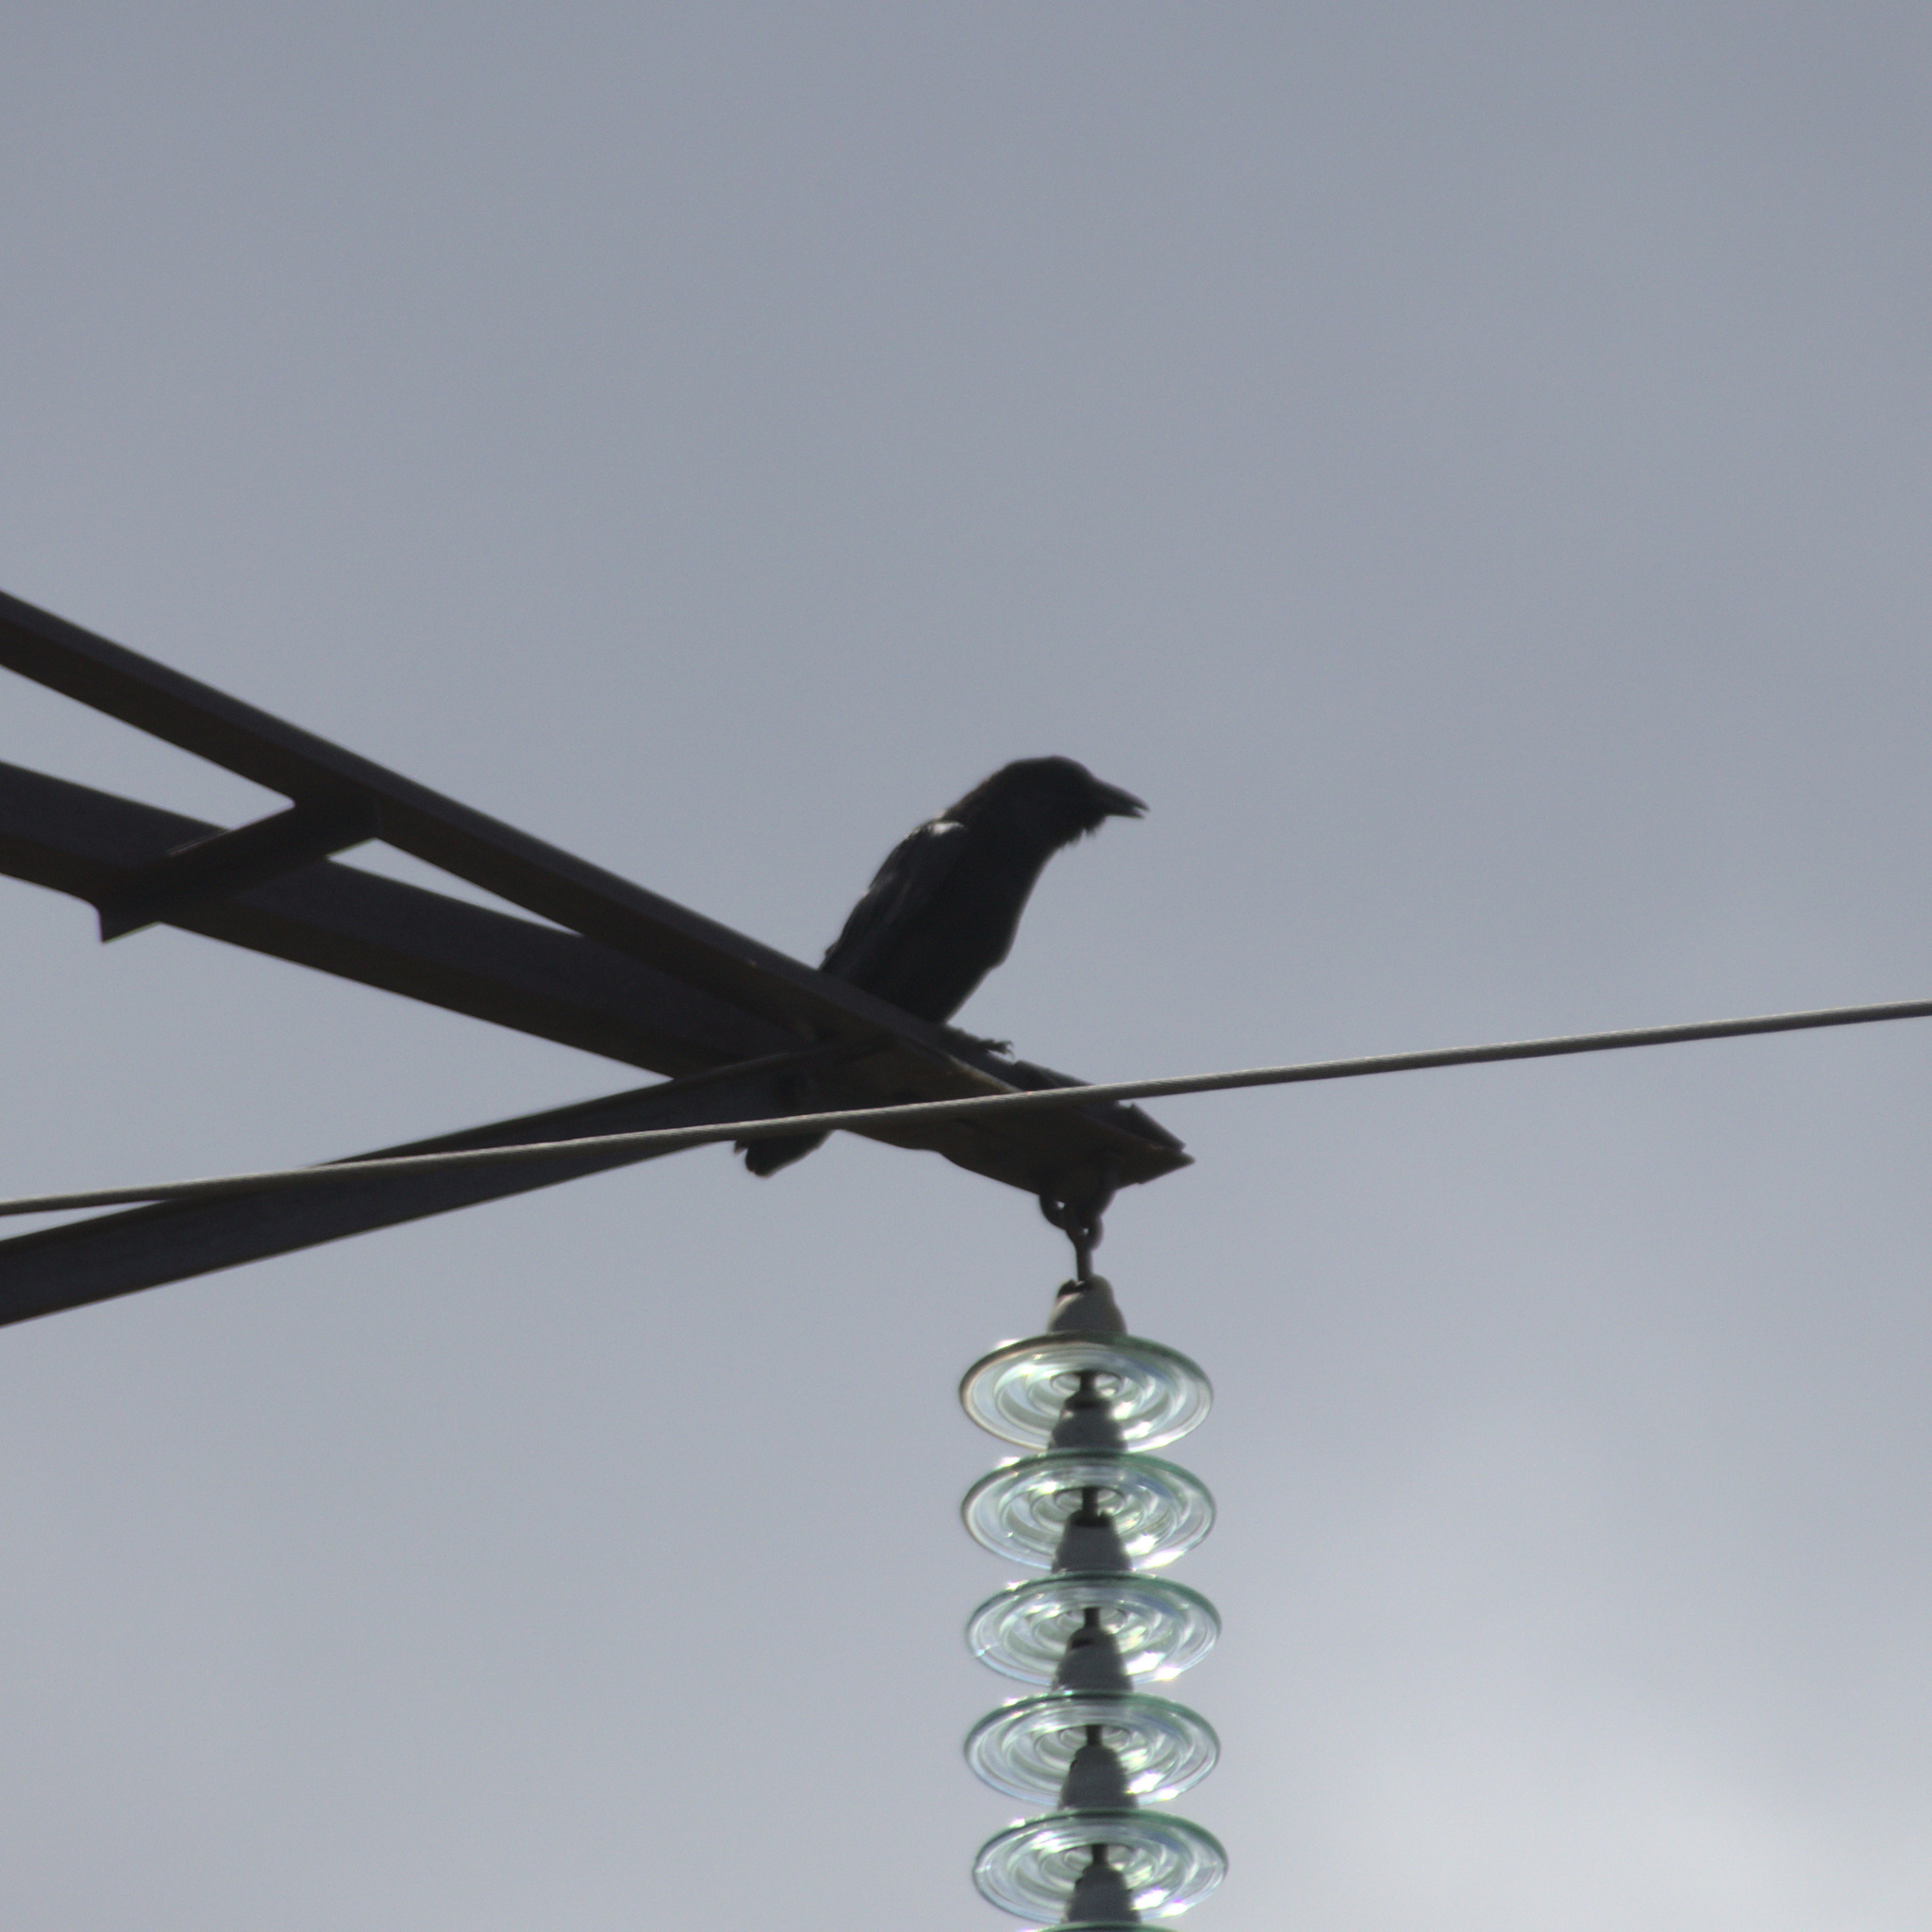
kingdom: Animalia
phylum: Chordata
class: Aves
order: Passeriformes
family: Corvidae
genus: Corvus
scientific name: Corvus corax
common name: Common raven
